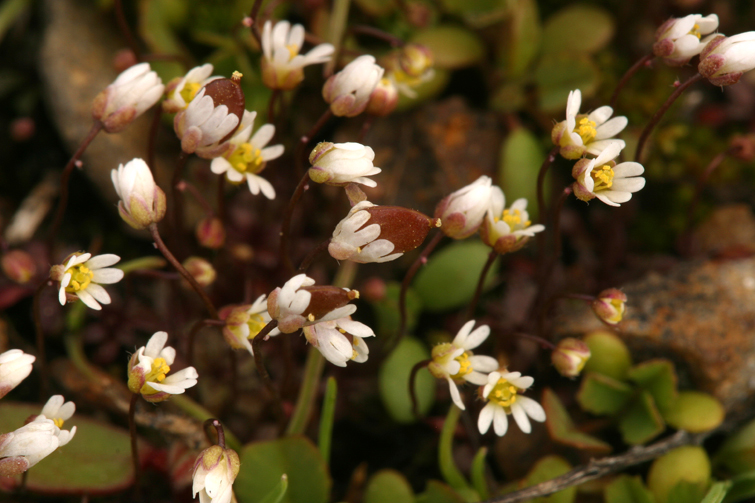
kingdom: Plantae
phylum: Tracheophyta
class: Magnoliopsida
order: Brassicales
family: Brassicaceae
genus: Draba
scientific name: Draba verna
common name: Spring draba
